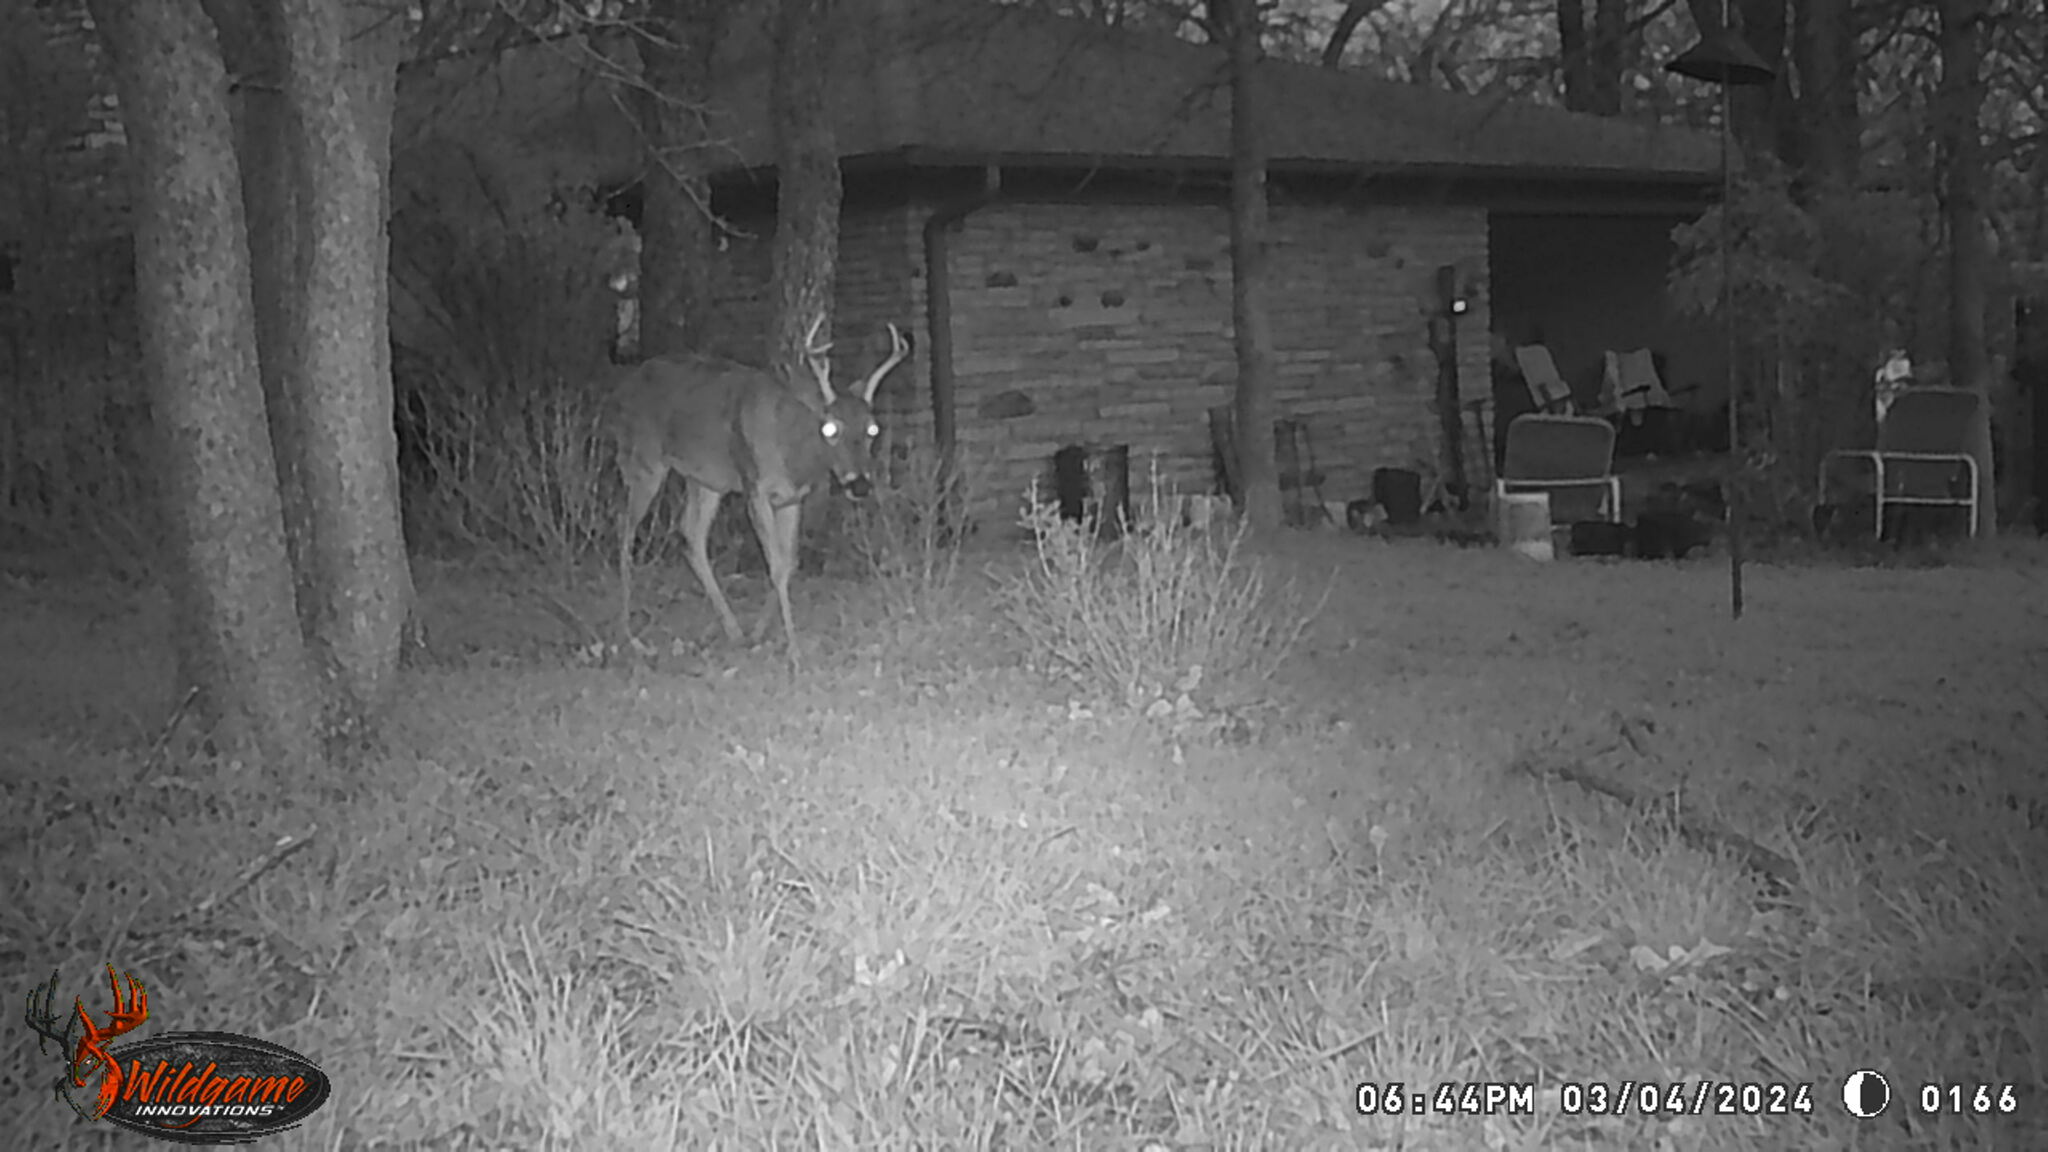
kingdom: Animalia
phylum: Chordata
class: Mammalia
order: Artiodactyla
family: Cervidae
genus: Odocoileus
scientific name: Odocoileus virginianus
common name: White-tailed deer
